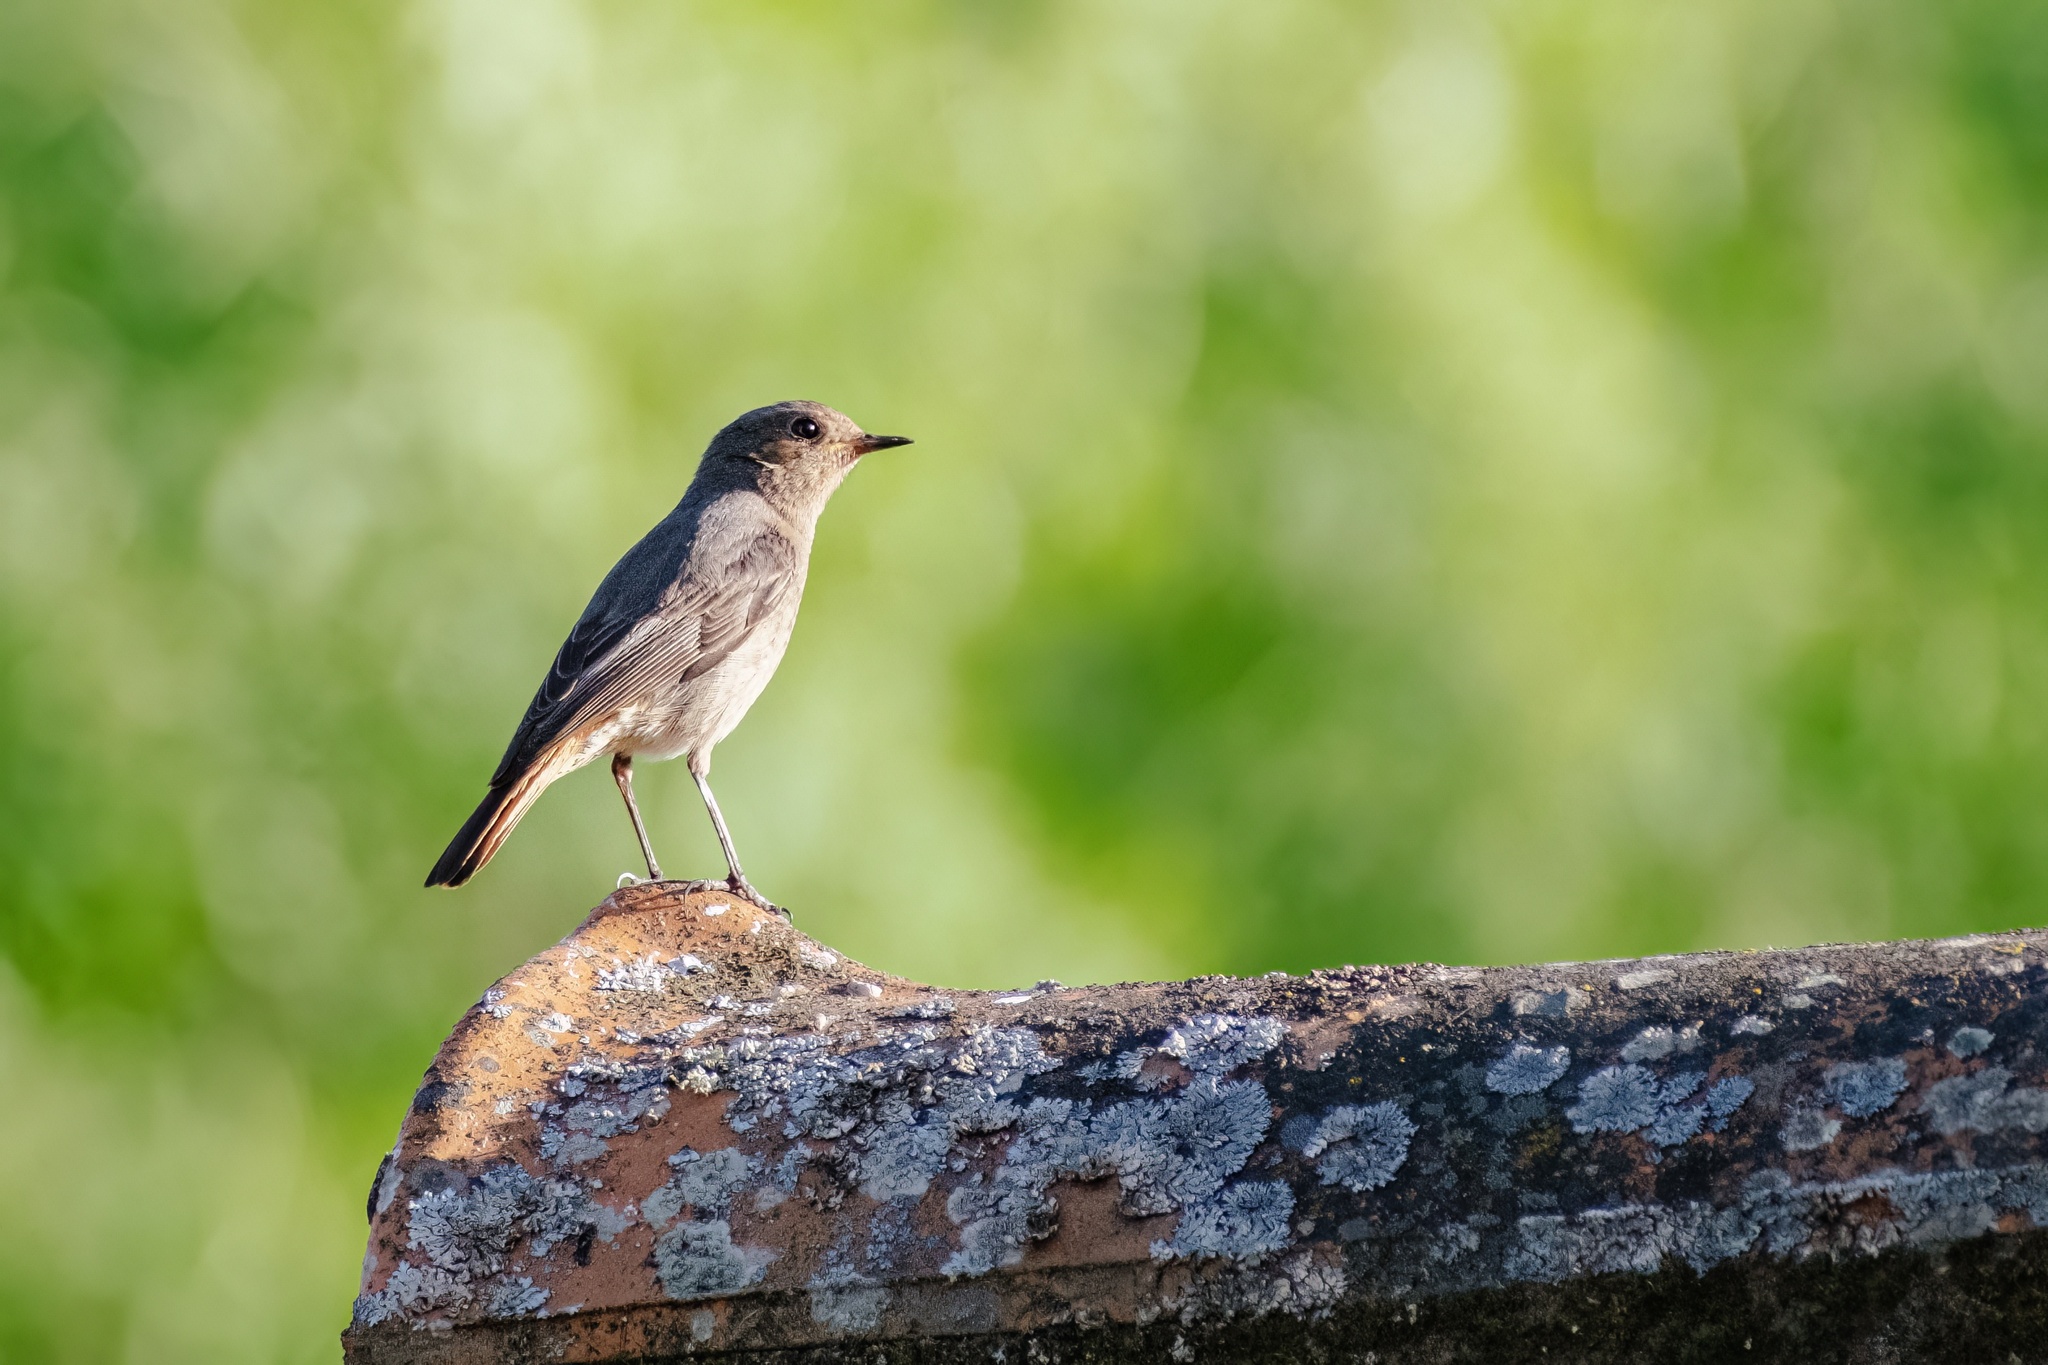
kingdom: Animalia
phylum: Chordata
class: Aves
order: Passeriformes
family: Muscicapidae
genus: Phoenicurus
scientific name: Phoenicurus ochruros
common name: Black redstart
